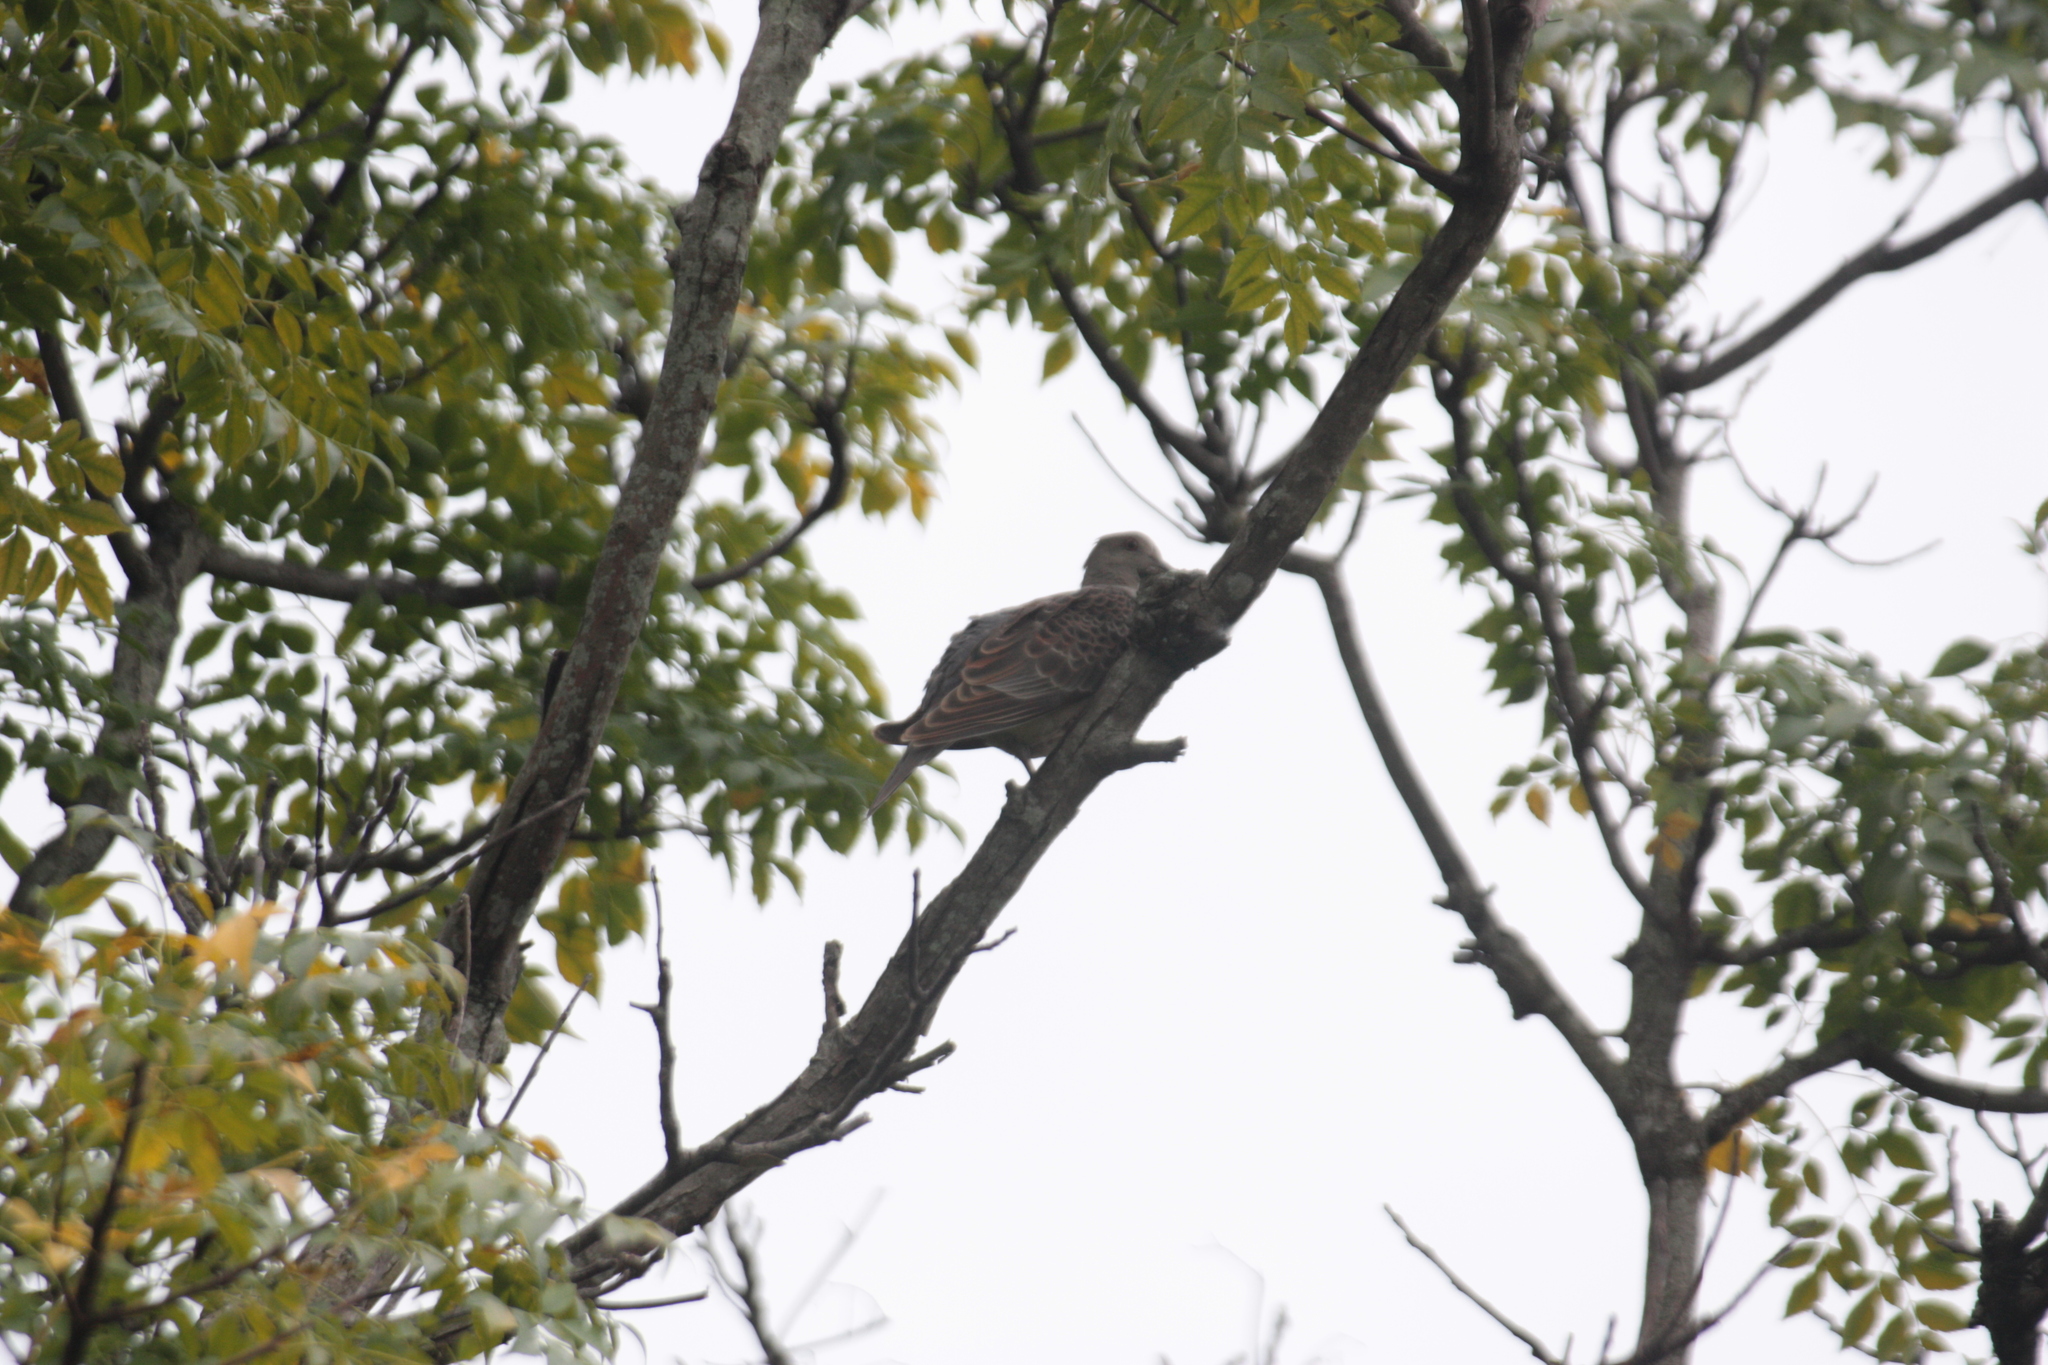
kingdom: Animalia
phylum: Chordata
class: Aves
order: Columbiformes
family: Columbidae
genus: Streptopelia
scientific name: Streptopelia orientalis
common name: Oriental turtle dove
